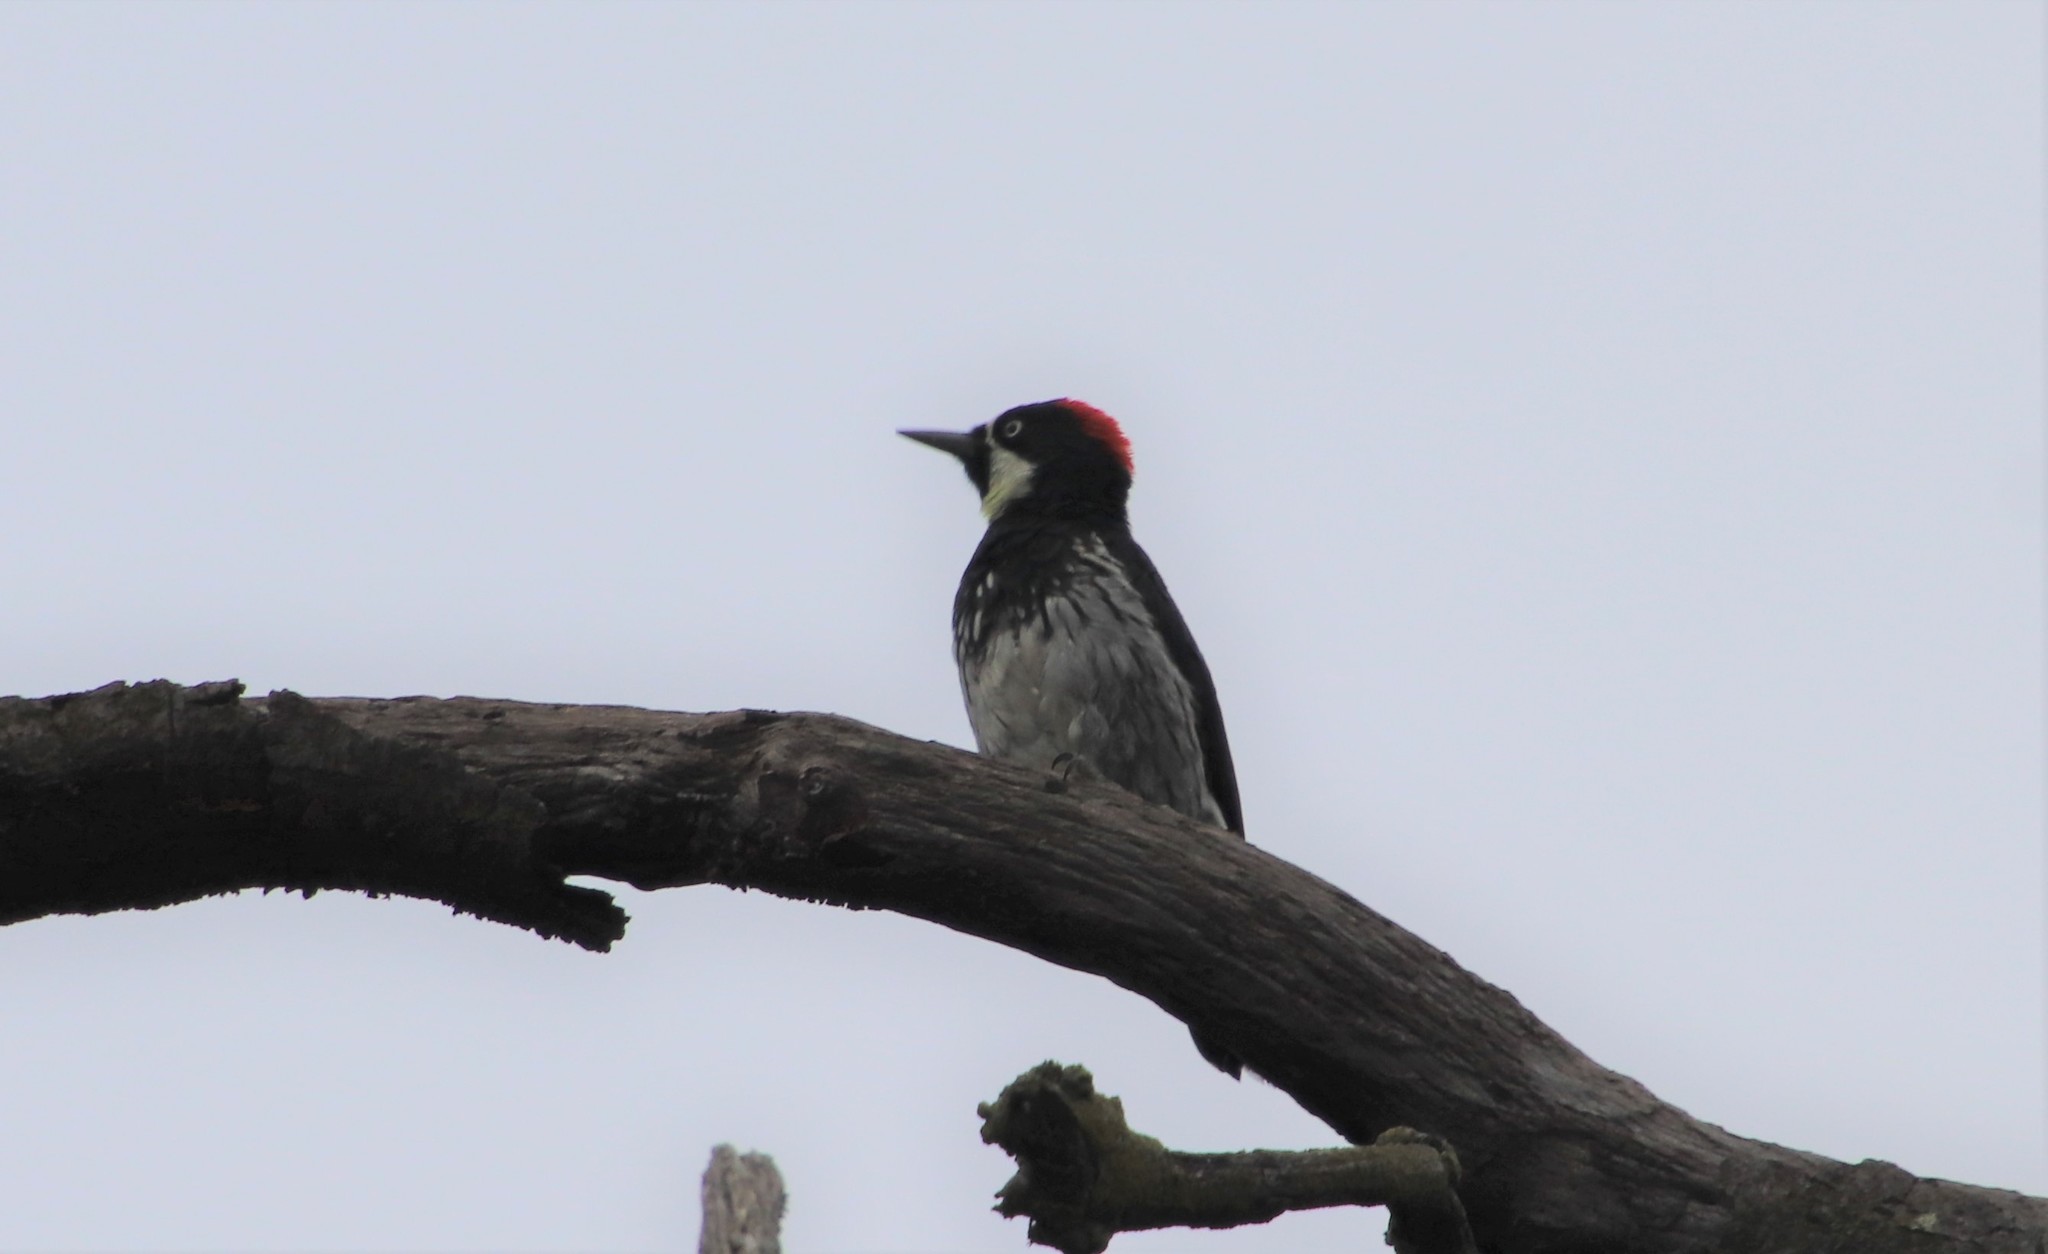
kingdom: Animalia
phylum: Chordata
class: Aves
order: Piciformes
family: Picidae
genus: Melanerpes
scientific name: Melanerpes formicivorus
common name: Acorn woodpecker
